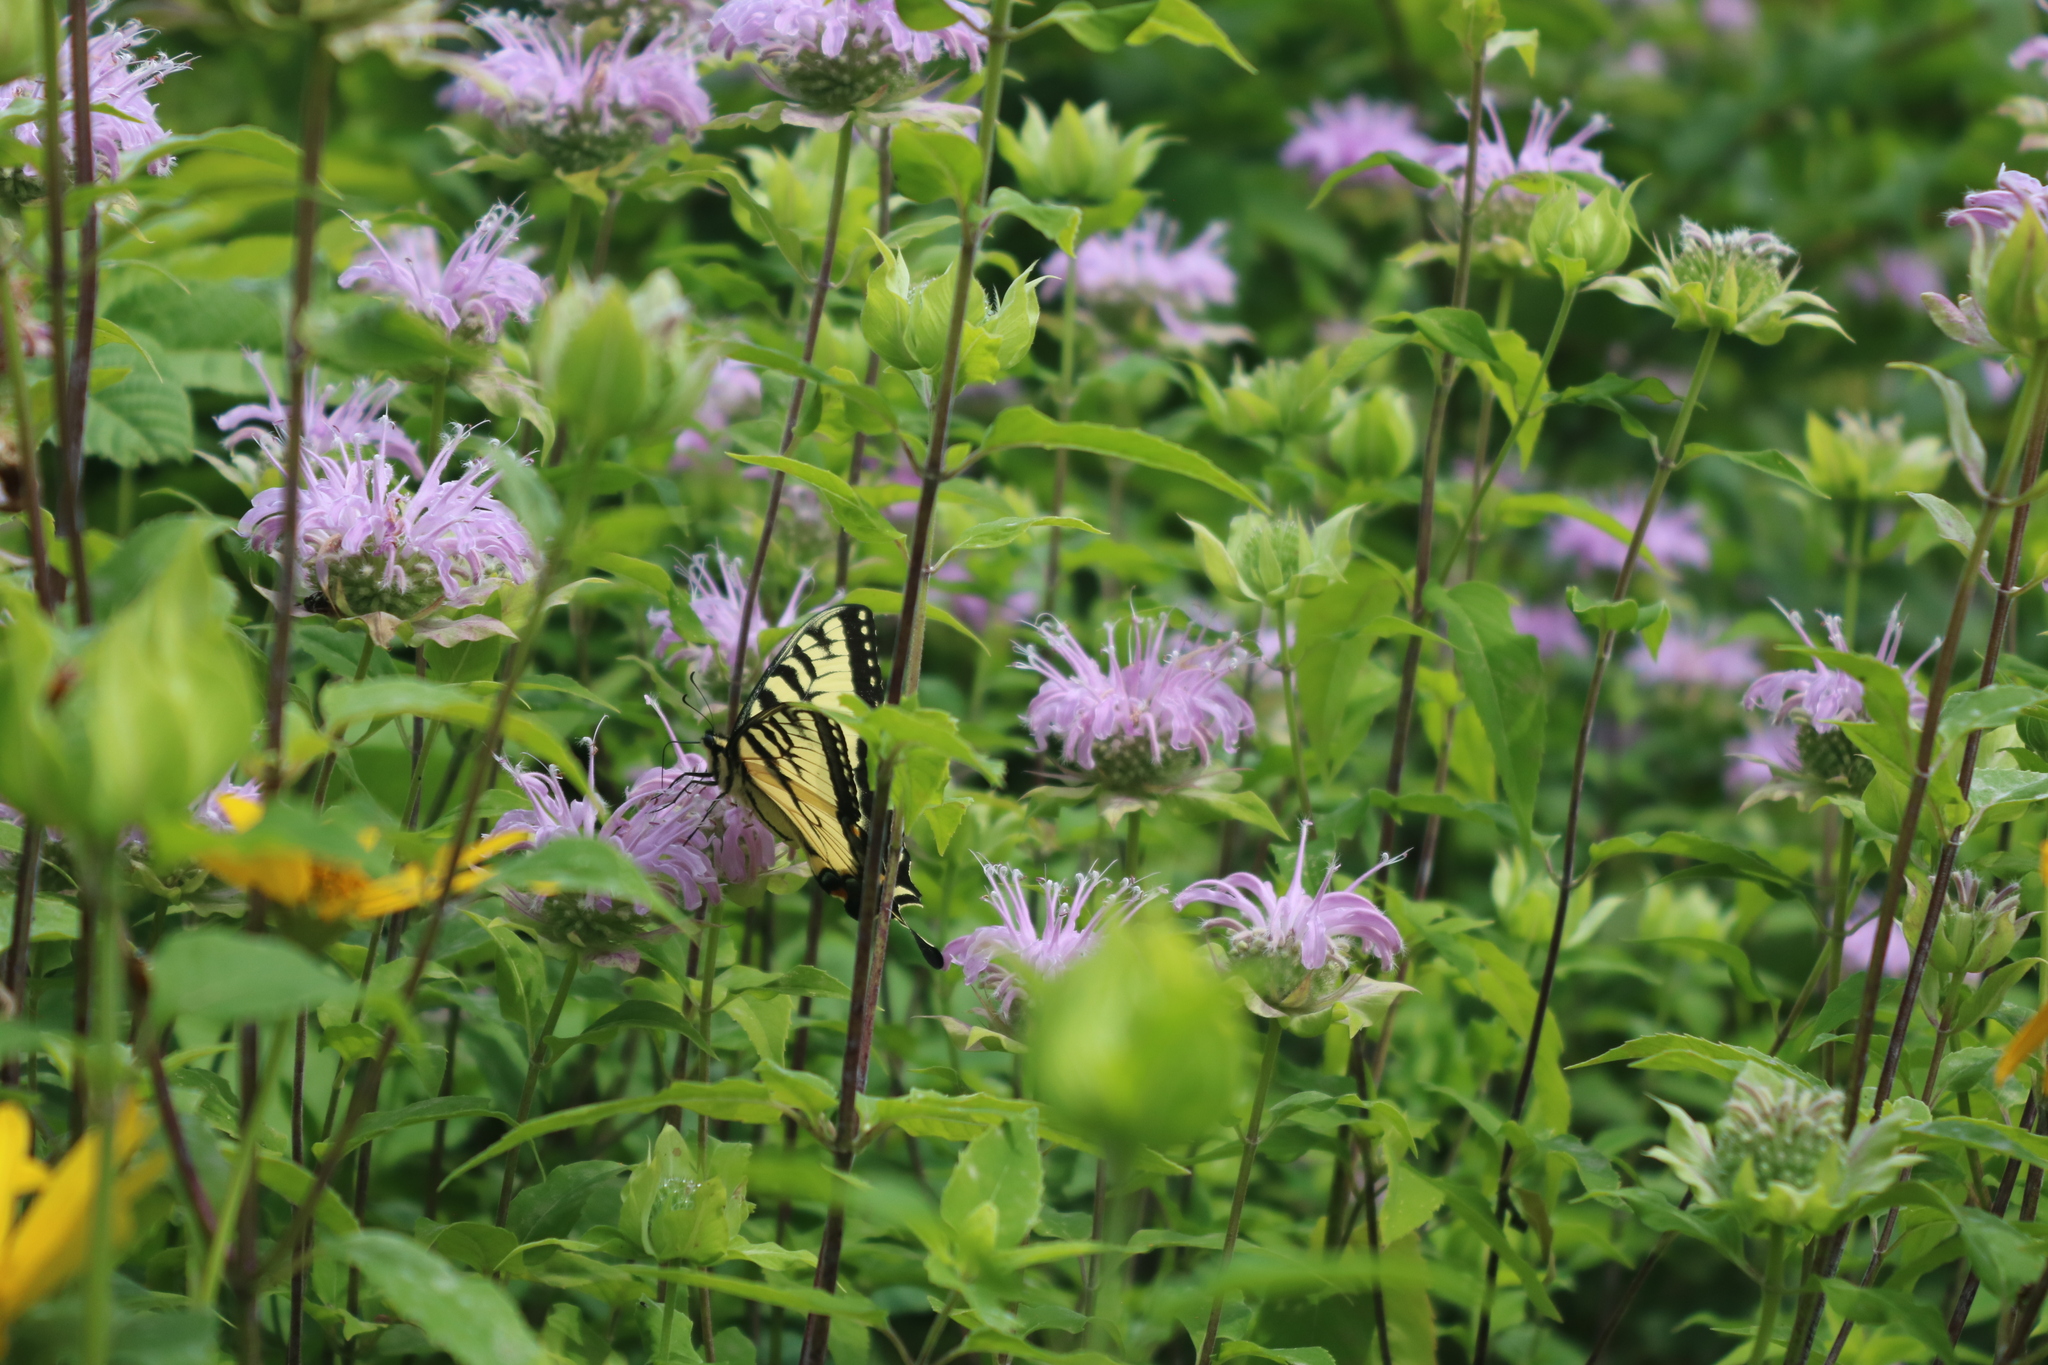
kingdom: Animalia
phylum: Arthropoda
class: Insecta
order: Lepidoptera
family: Papilionidae
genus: Papilio
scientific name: Papilio glaucus
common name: Tiger swallowtail
